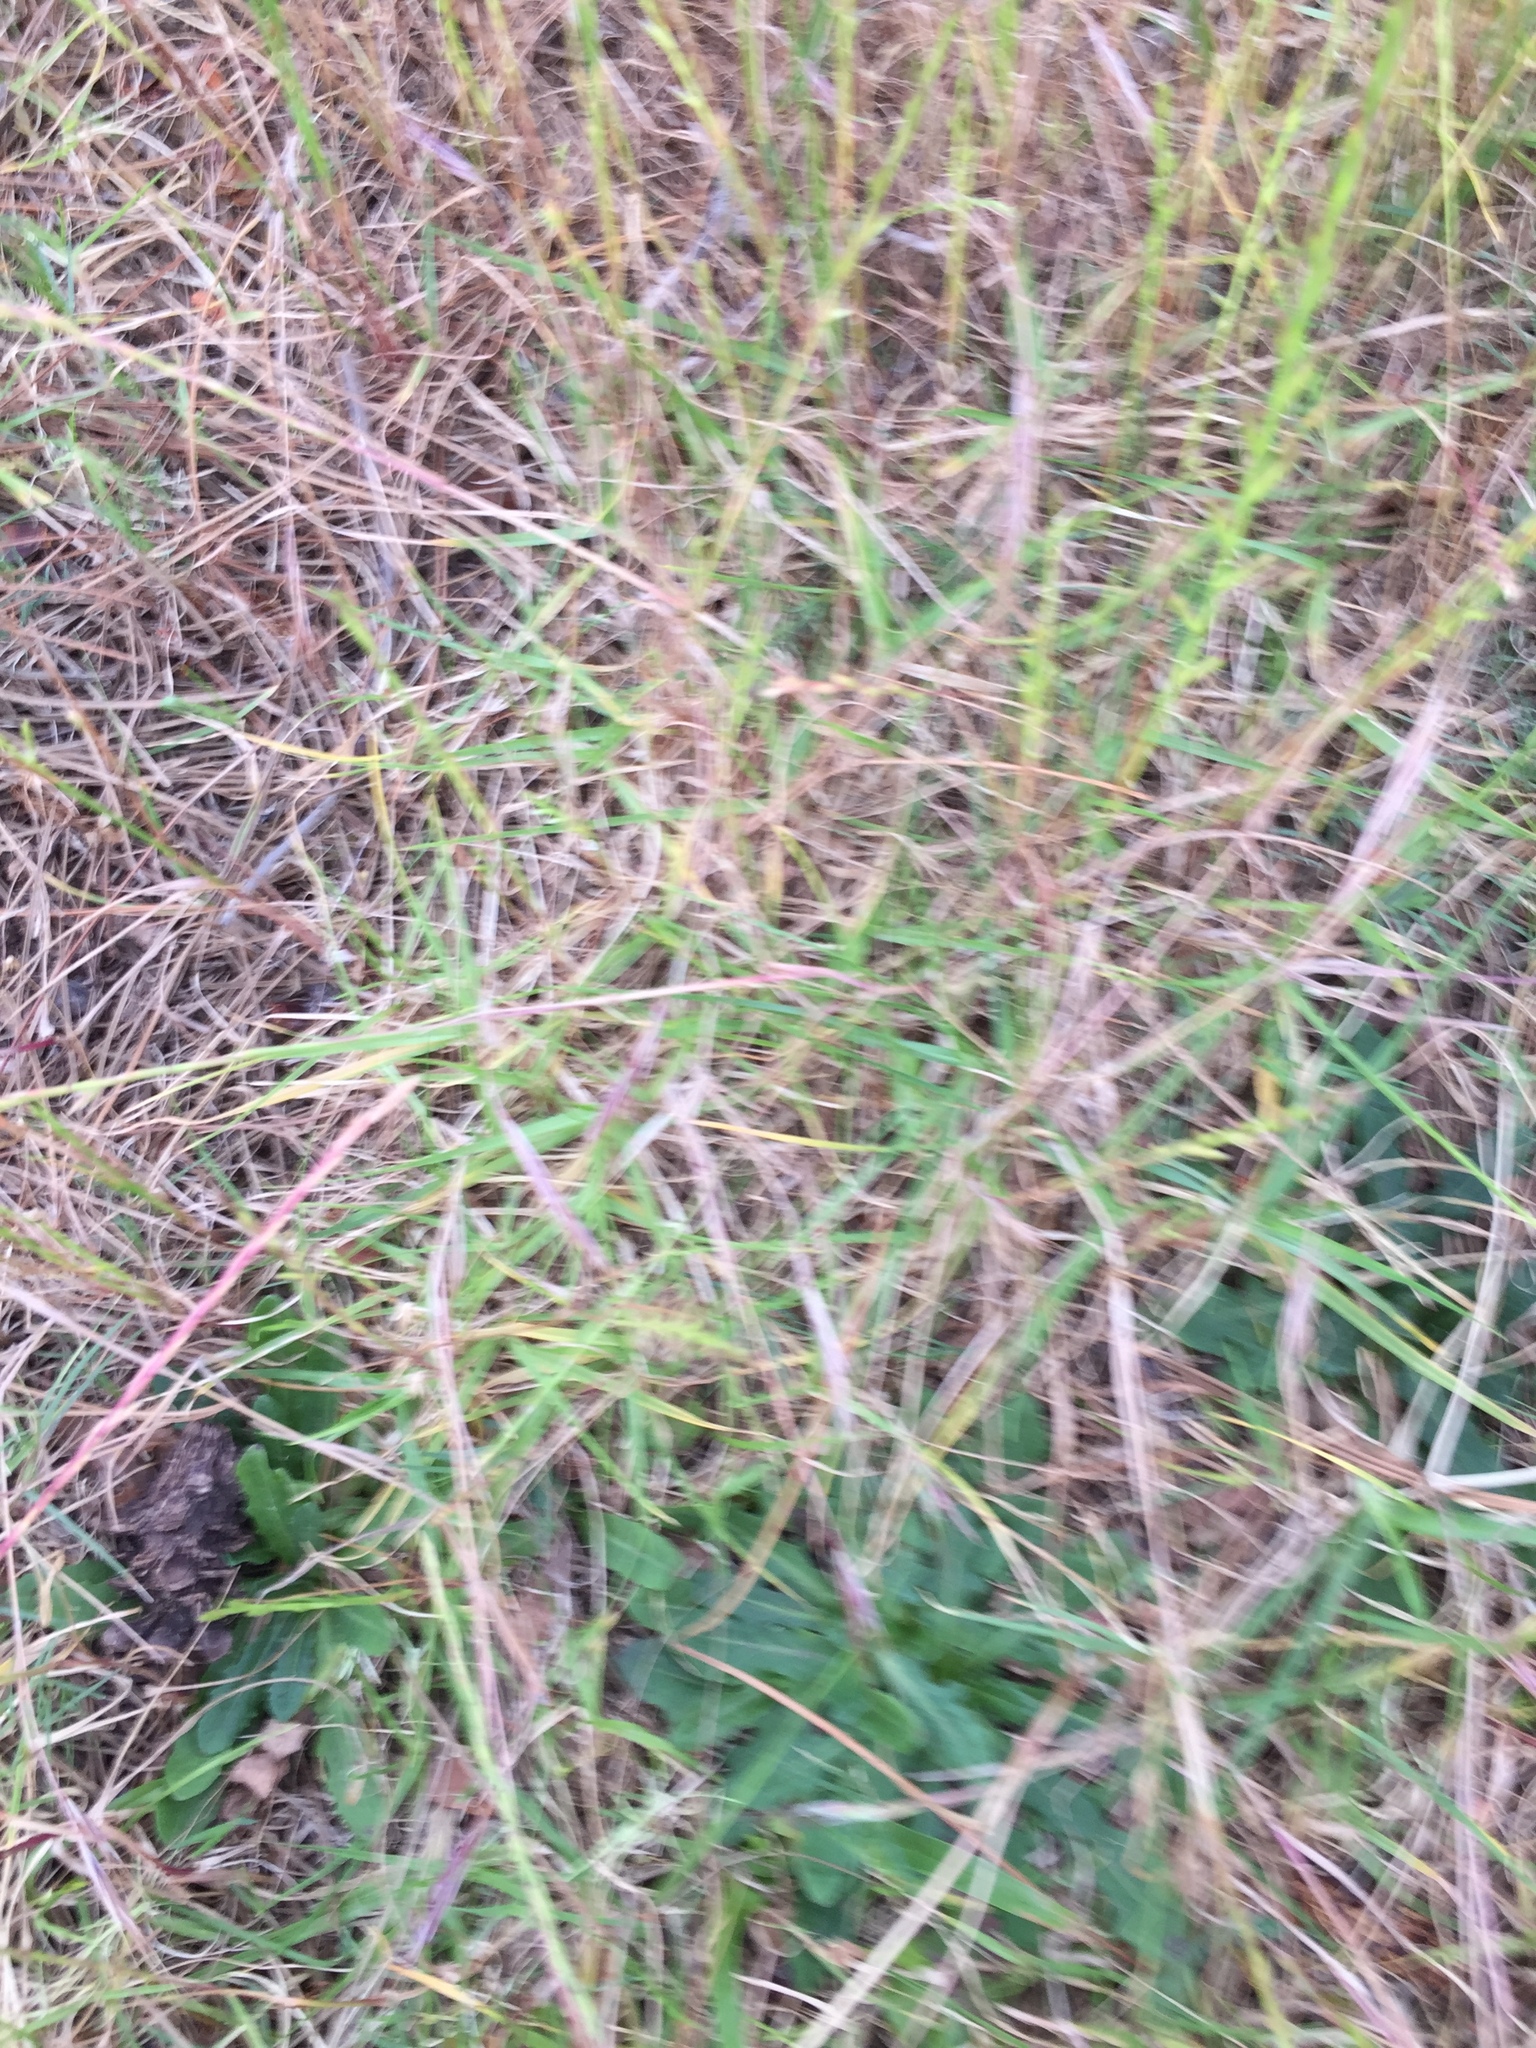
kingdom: Plantae
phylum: Tracheophyta
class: Liliopsida
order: Poales
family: Poaceae
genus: Cenchrus
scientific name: Cenchrus clandestinus
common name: Kikuyugrass
